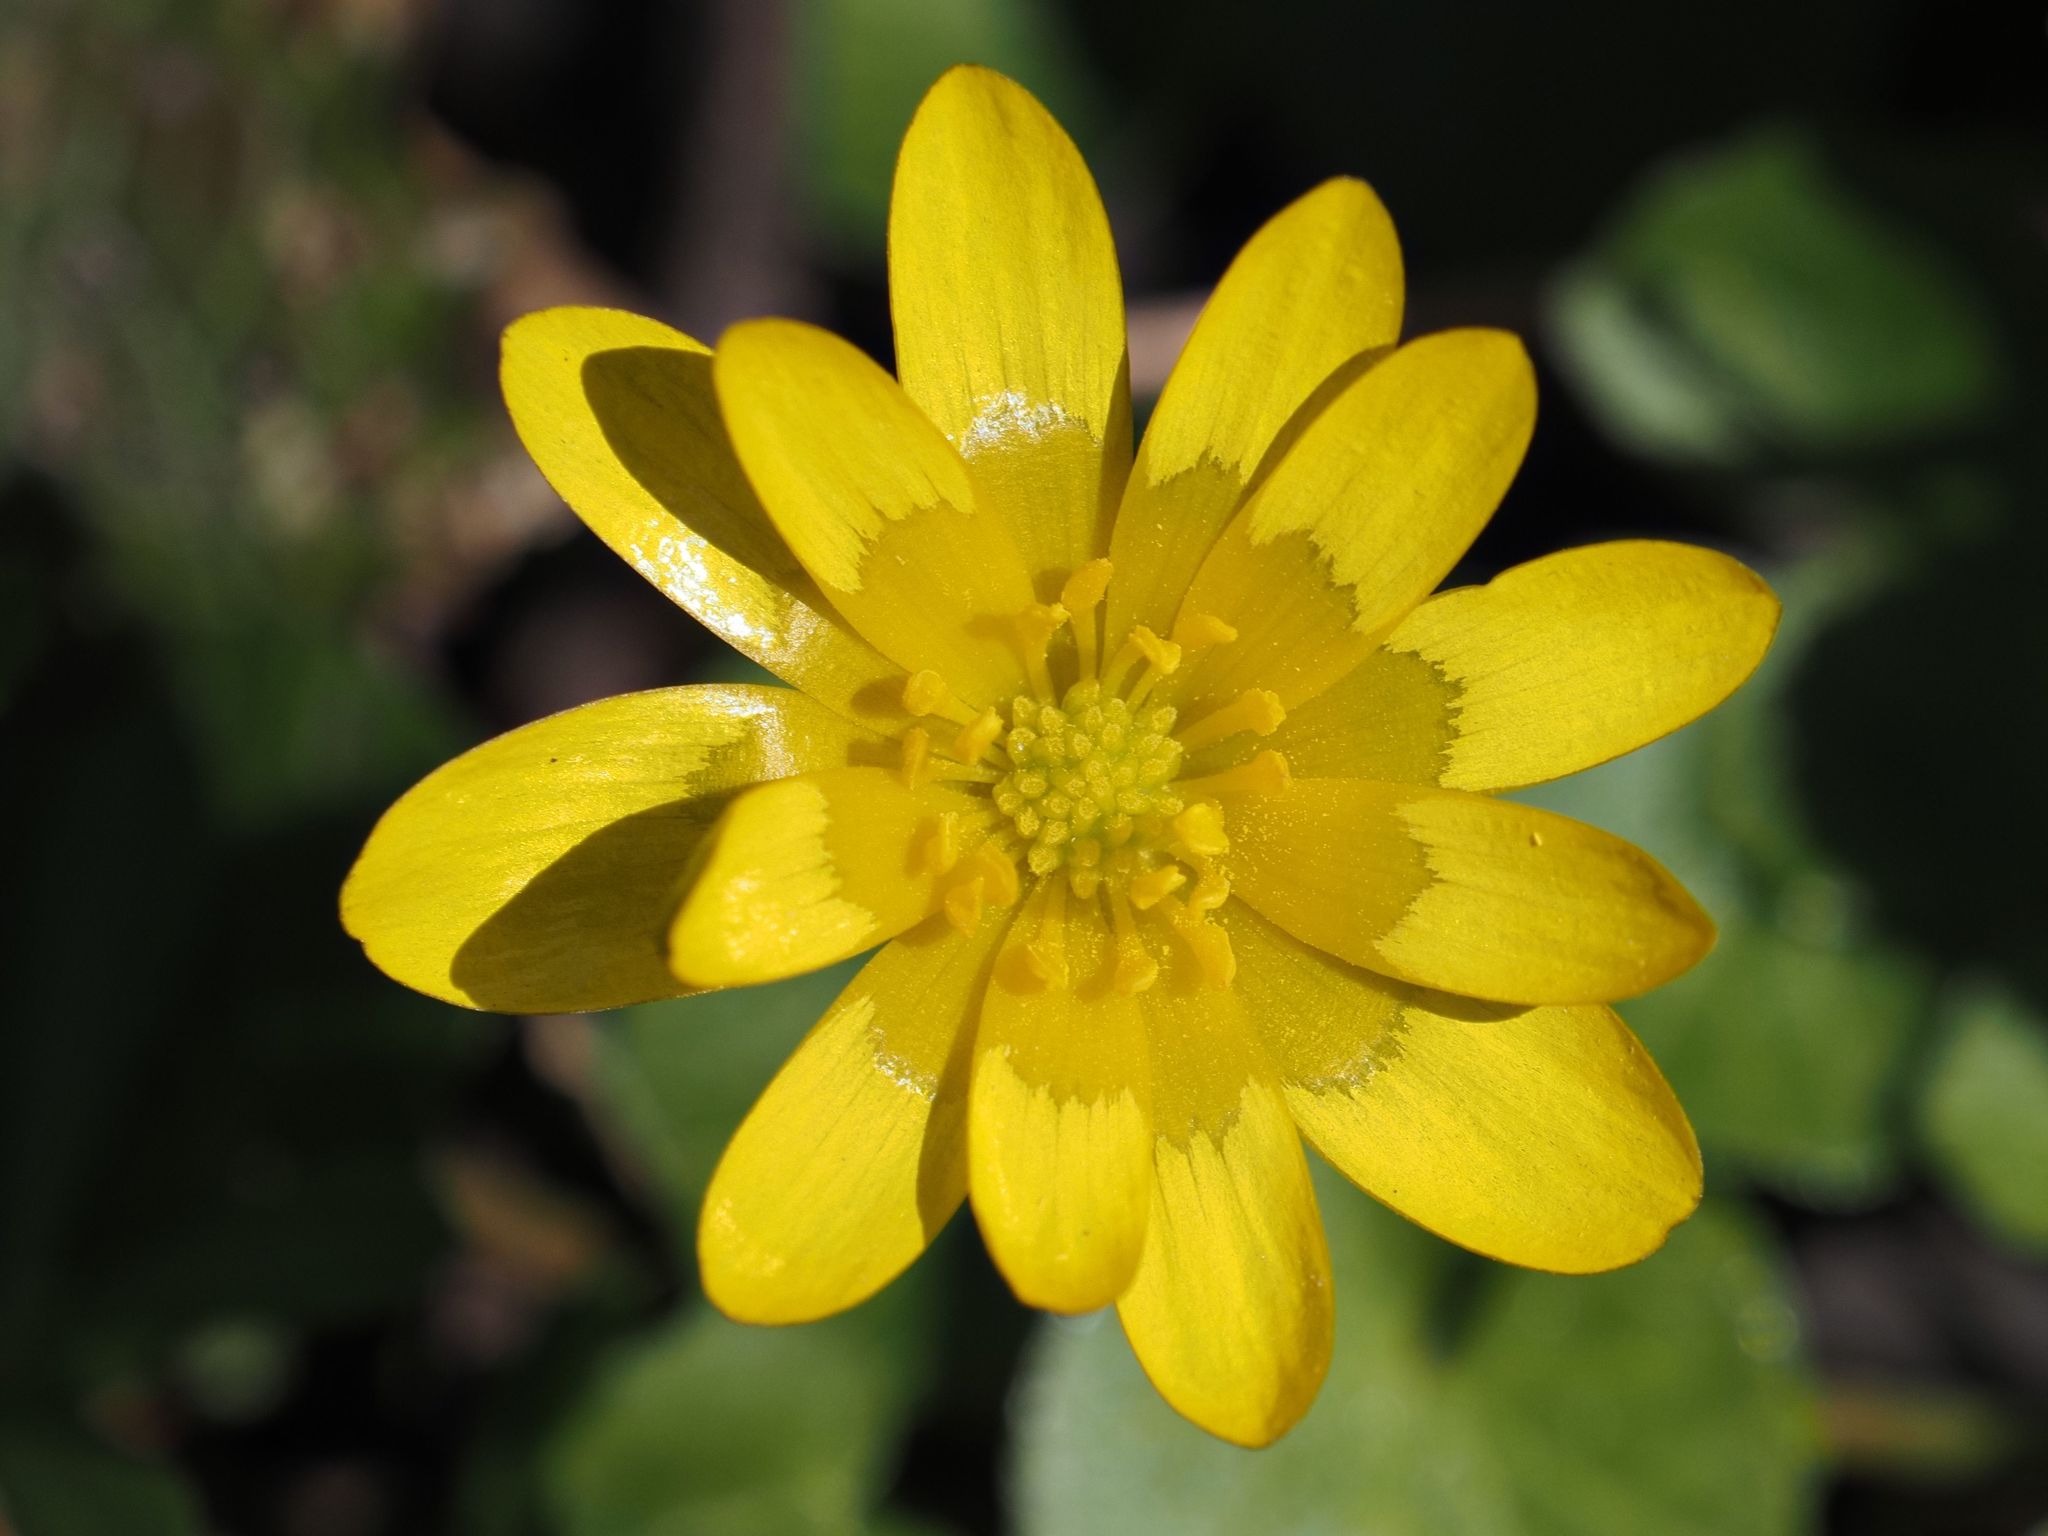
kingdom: Plantae
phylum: Tracheophyta
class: Magnoliopsida
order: Ranunculales
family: Ranunculaceae
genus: Ficaria
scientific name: Ficaria verna
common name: Lesser celandine
